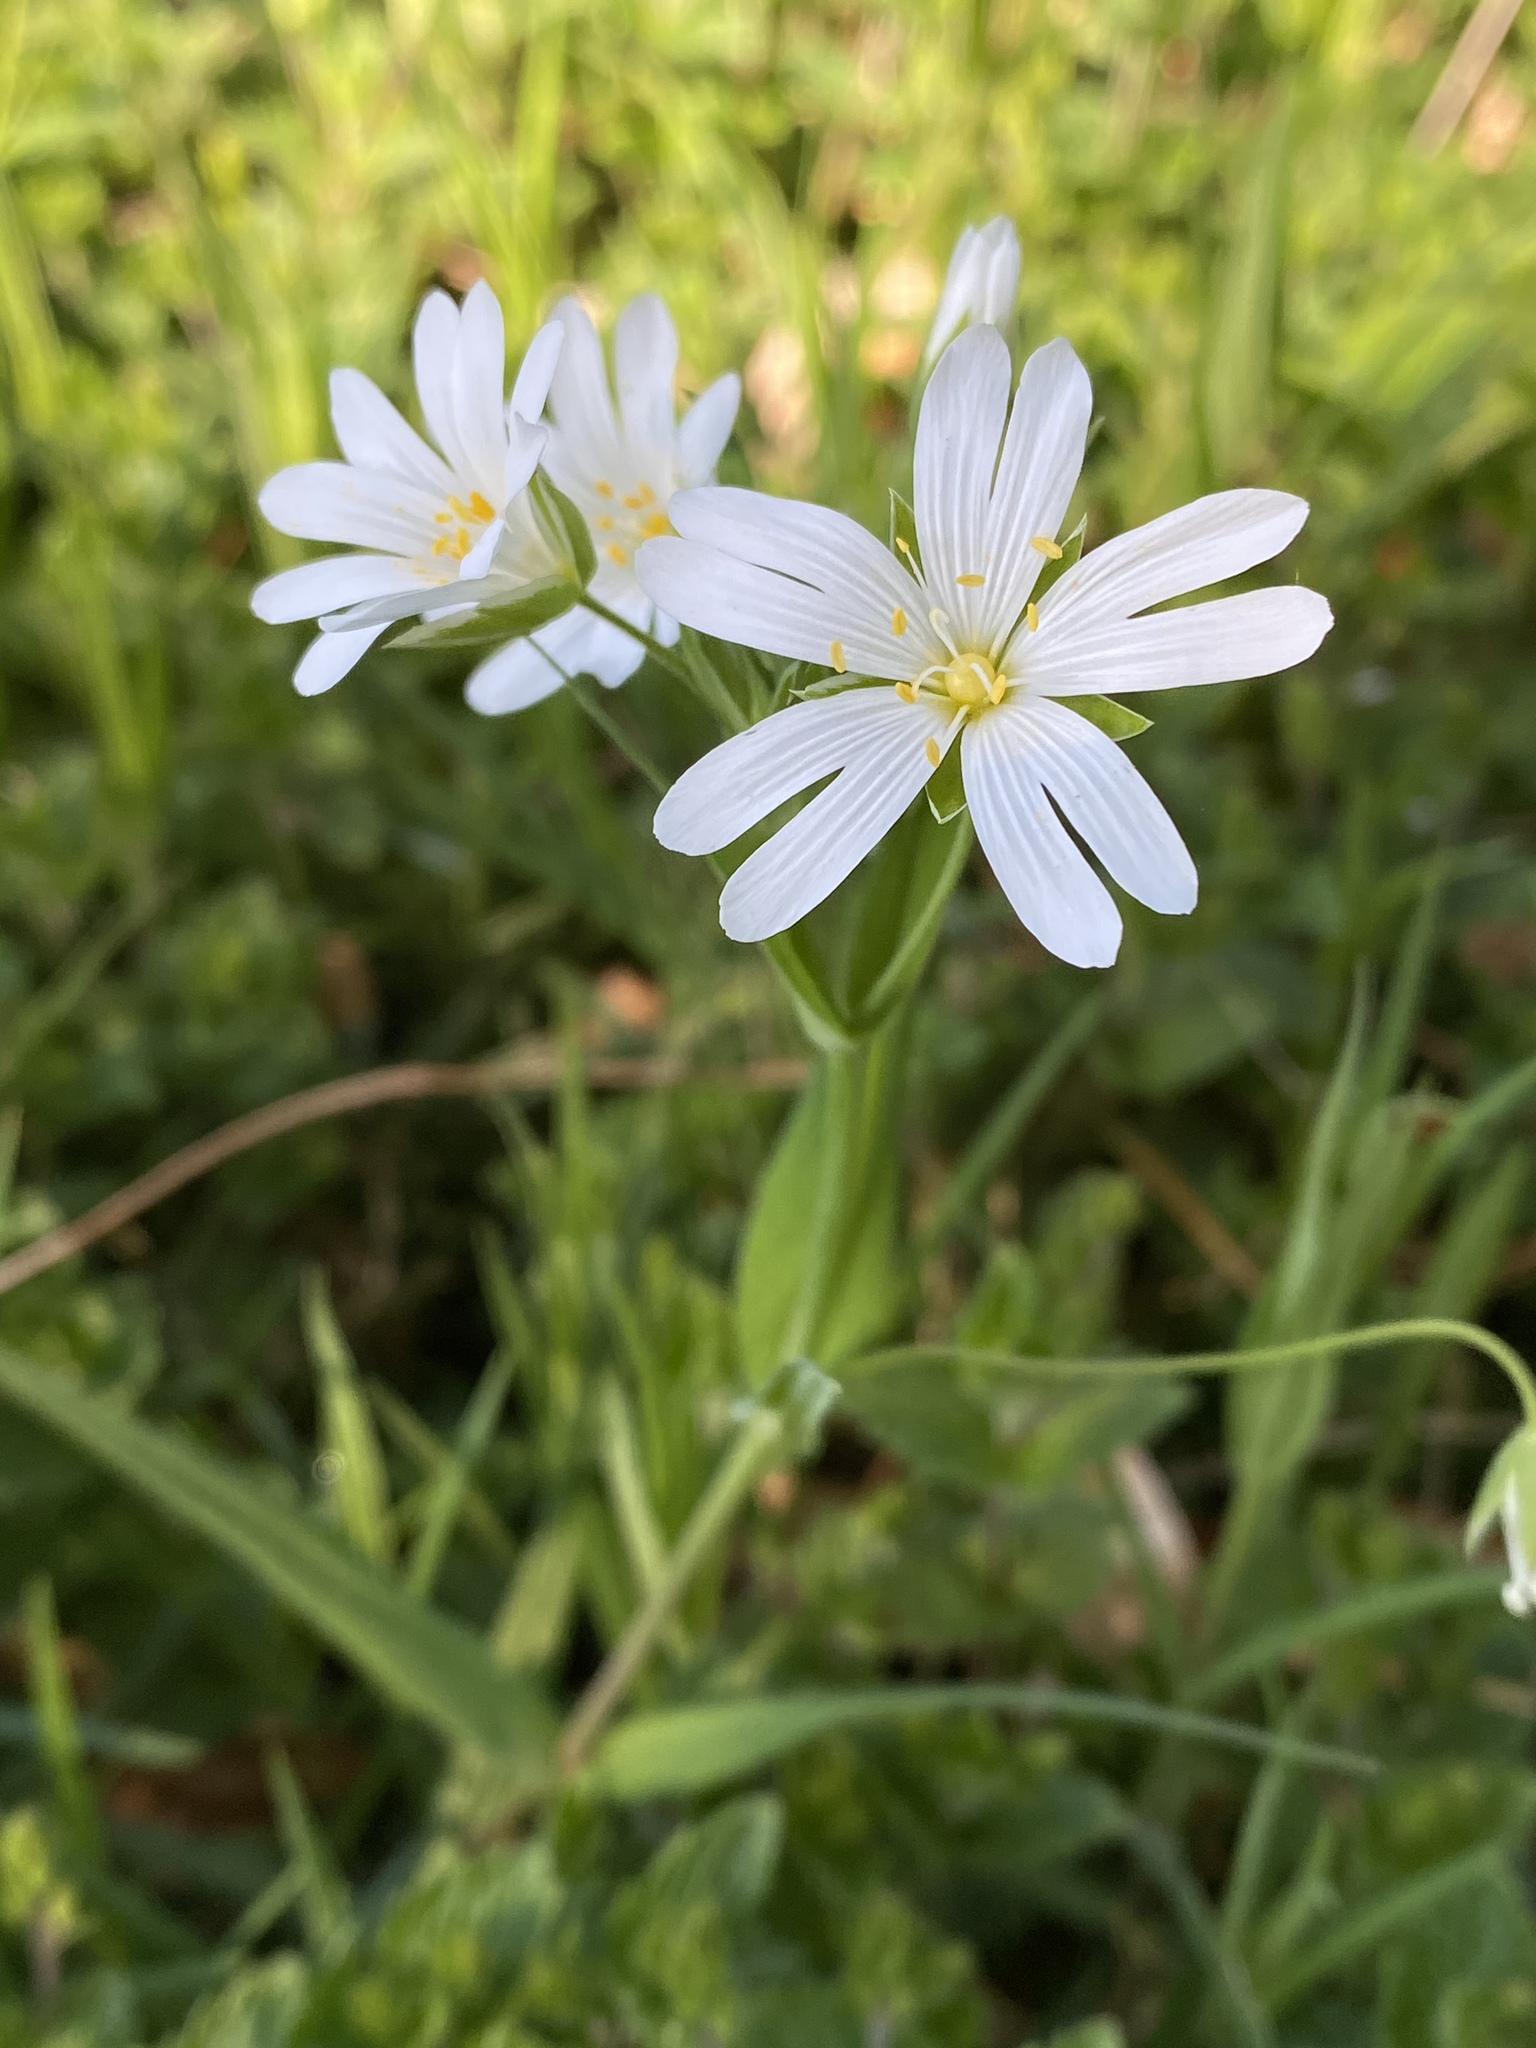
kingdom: Plantae
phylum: Tracheophyta
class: Magnoliopsida
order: Caryophyllales
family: Caryophyllaceae
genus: Rabelera
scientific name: Rabelera holostea
